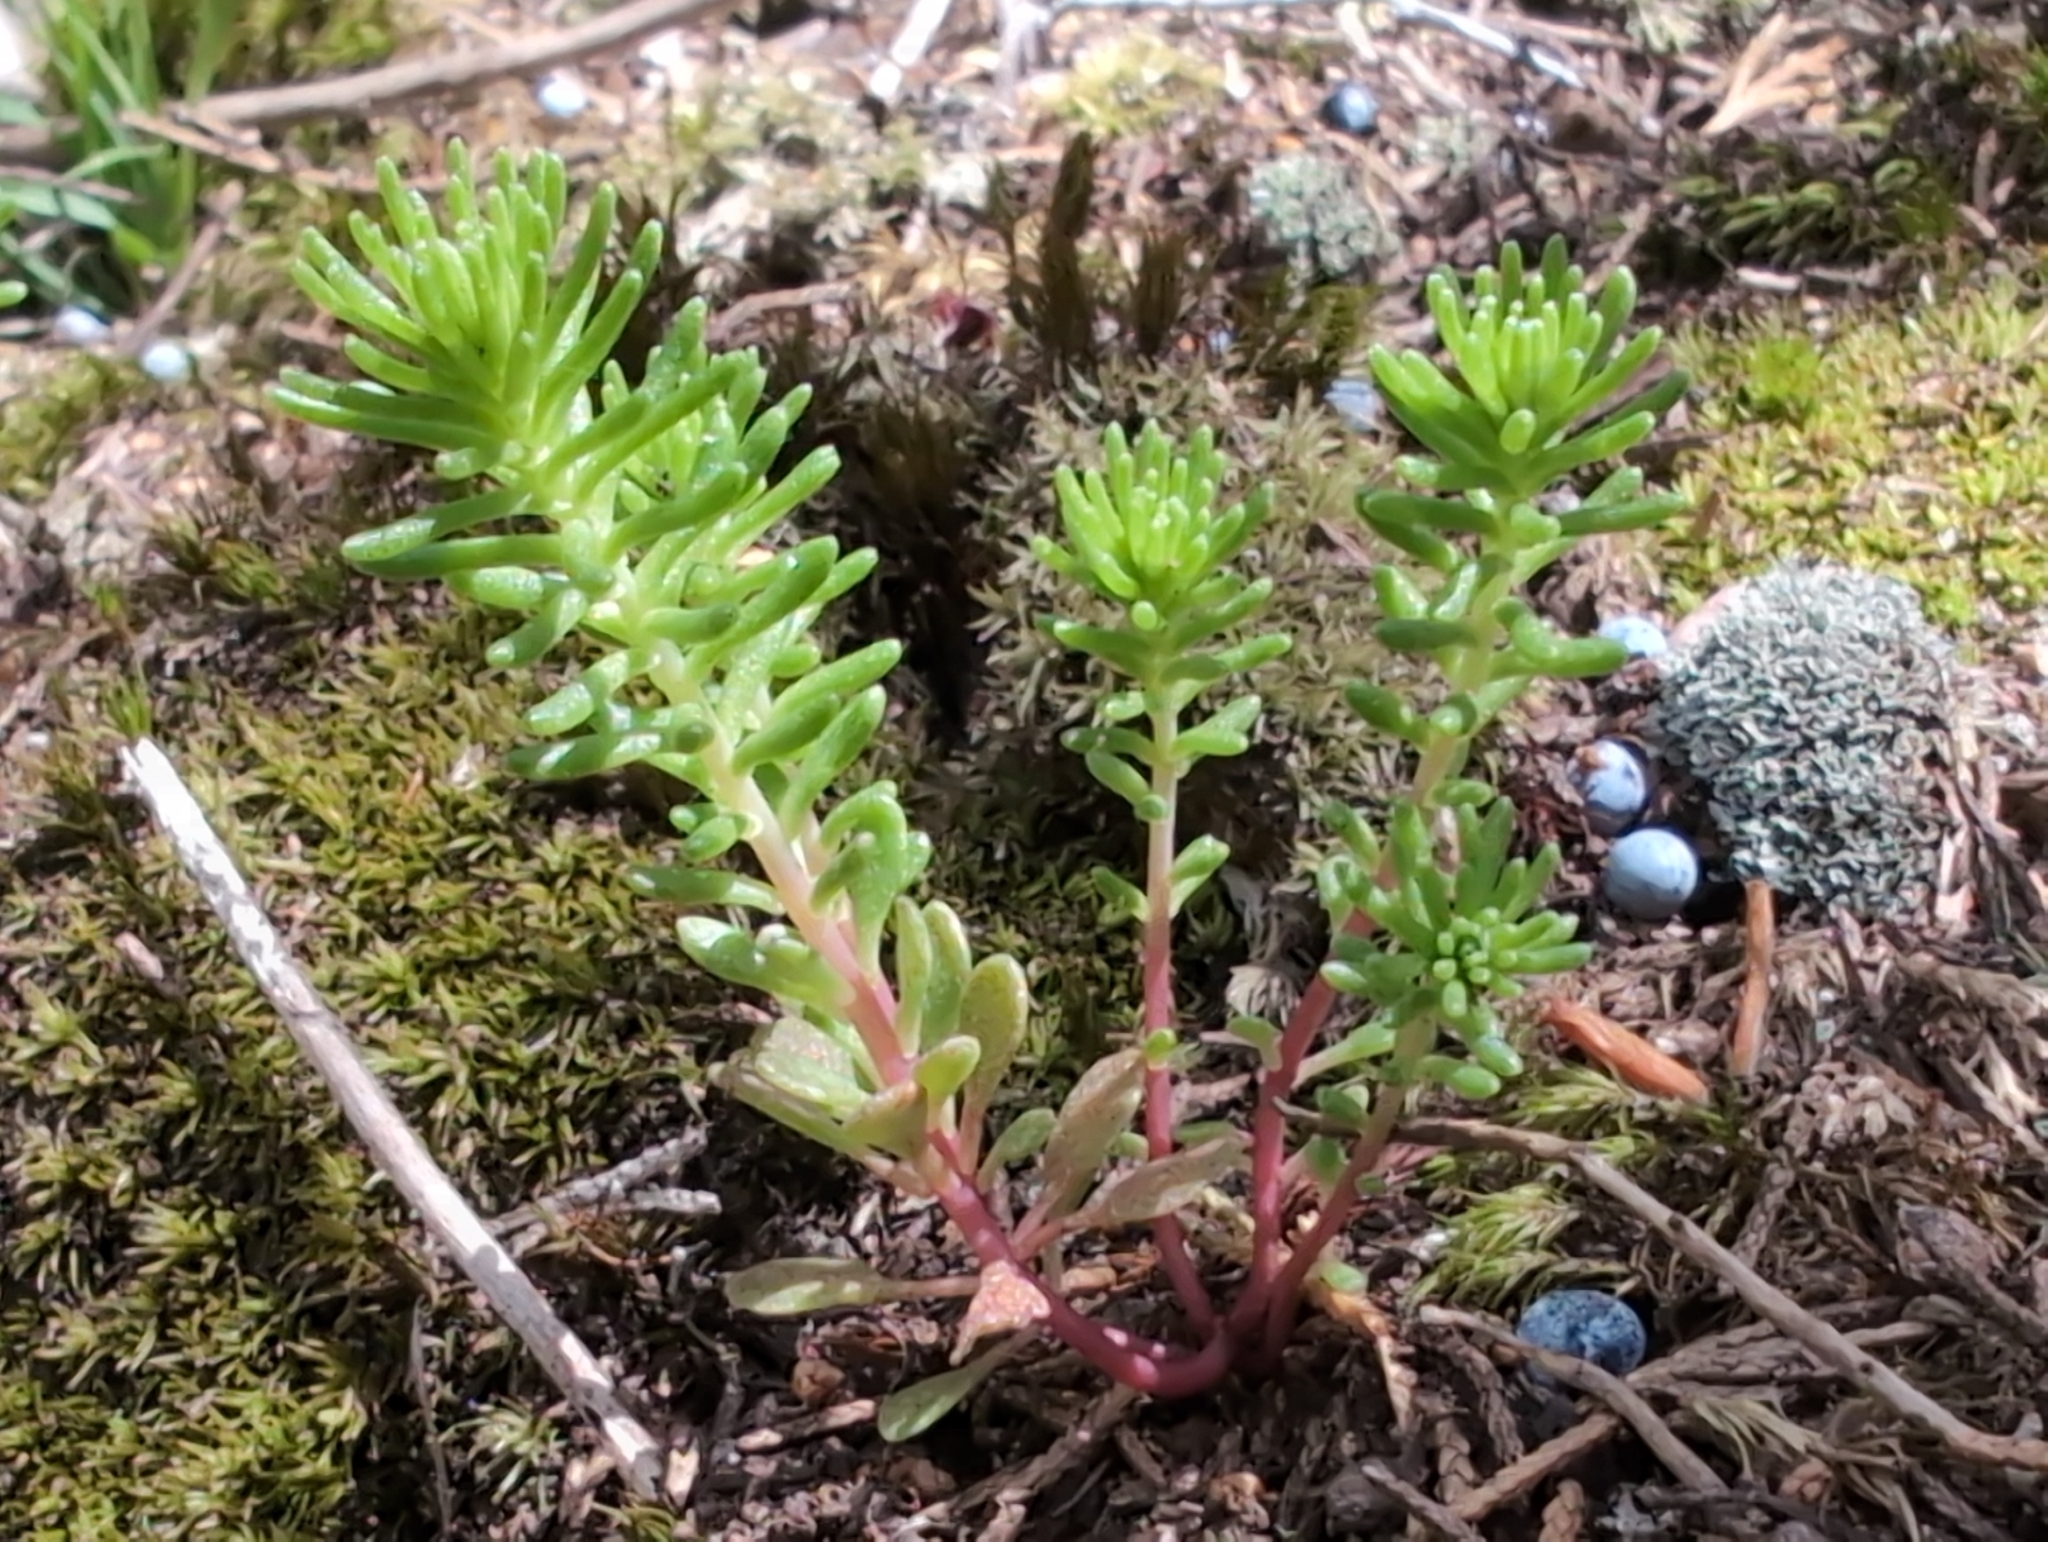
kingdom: Plantae
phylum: Tracheophyta
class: Magnoliopsida
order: Saxifragales
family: Crassulaceae
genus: Sedum
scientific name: Sedum pulchellum
